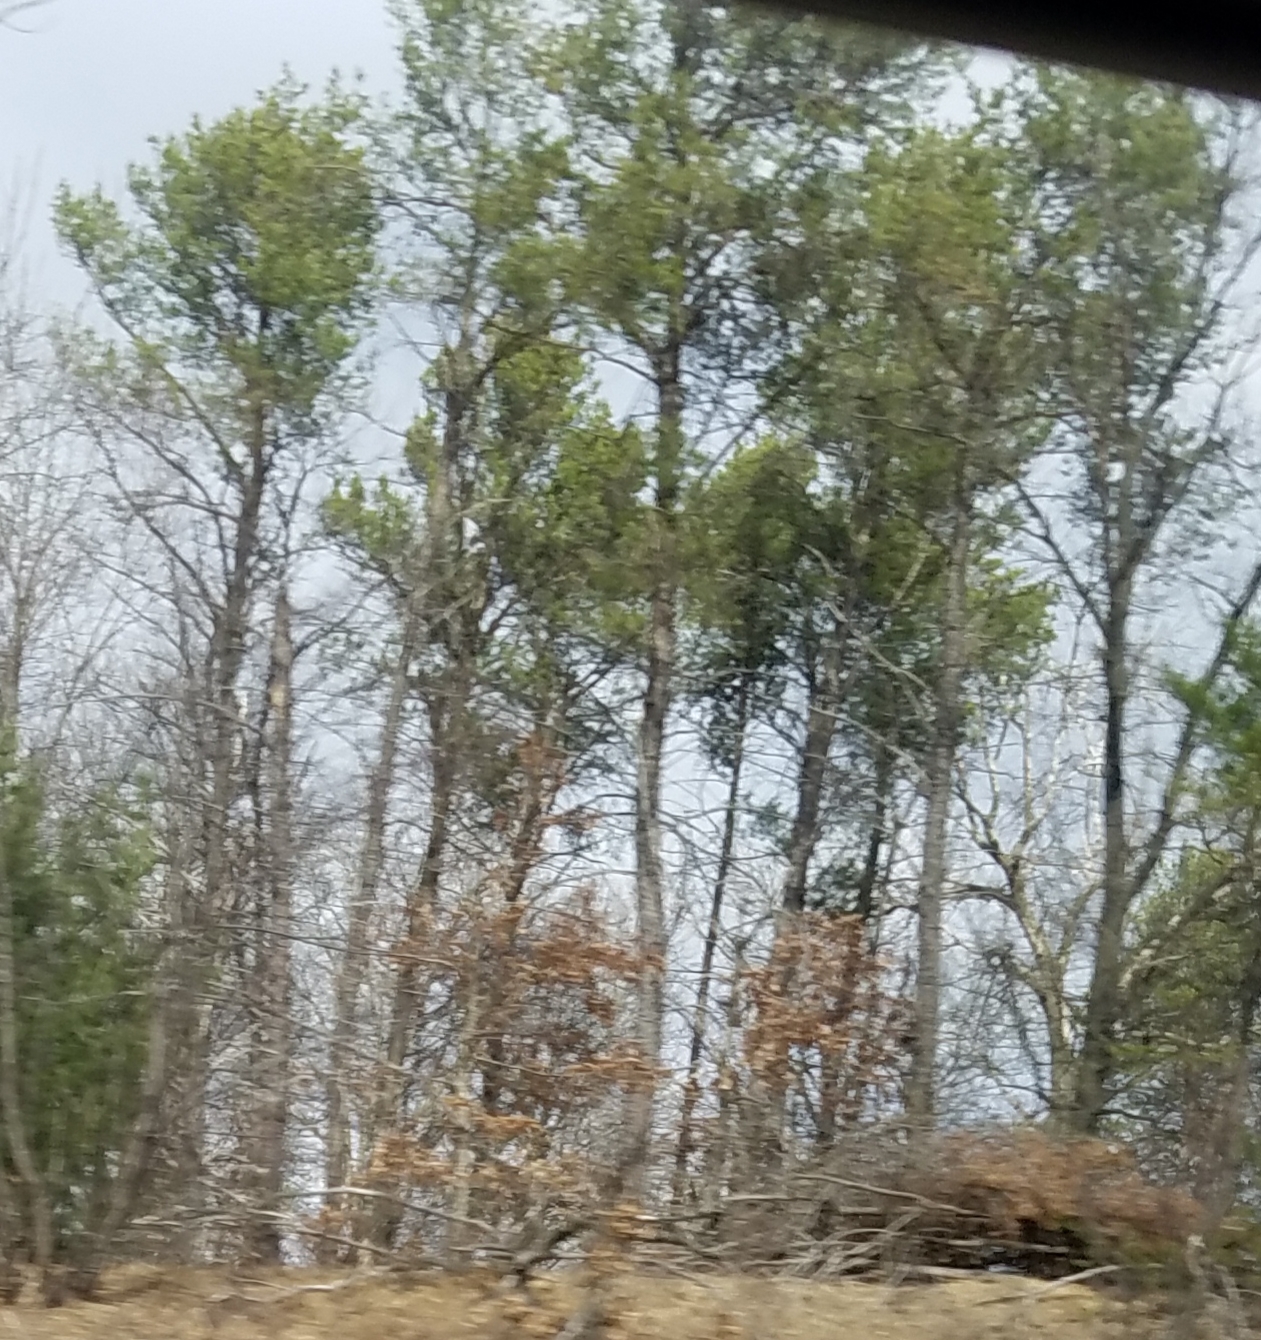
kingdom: Plantae
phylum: Tracheophyta
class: Pinopsida
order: Pinales
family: Pinaceae
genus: Pinus
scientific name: Pinus strobus
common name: Weymouth pine
